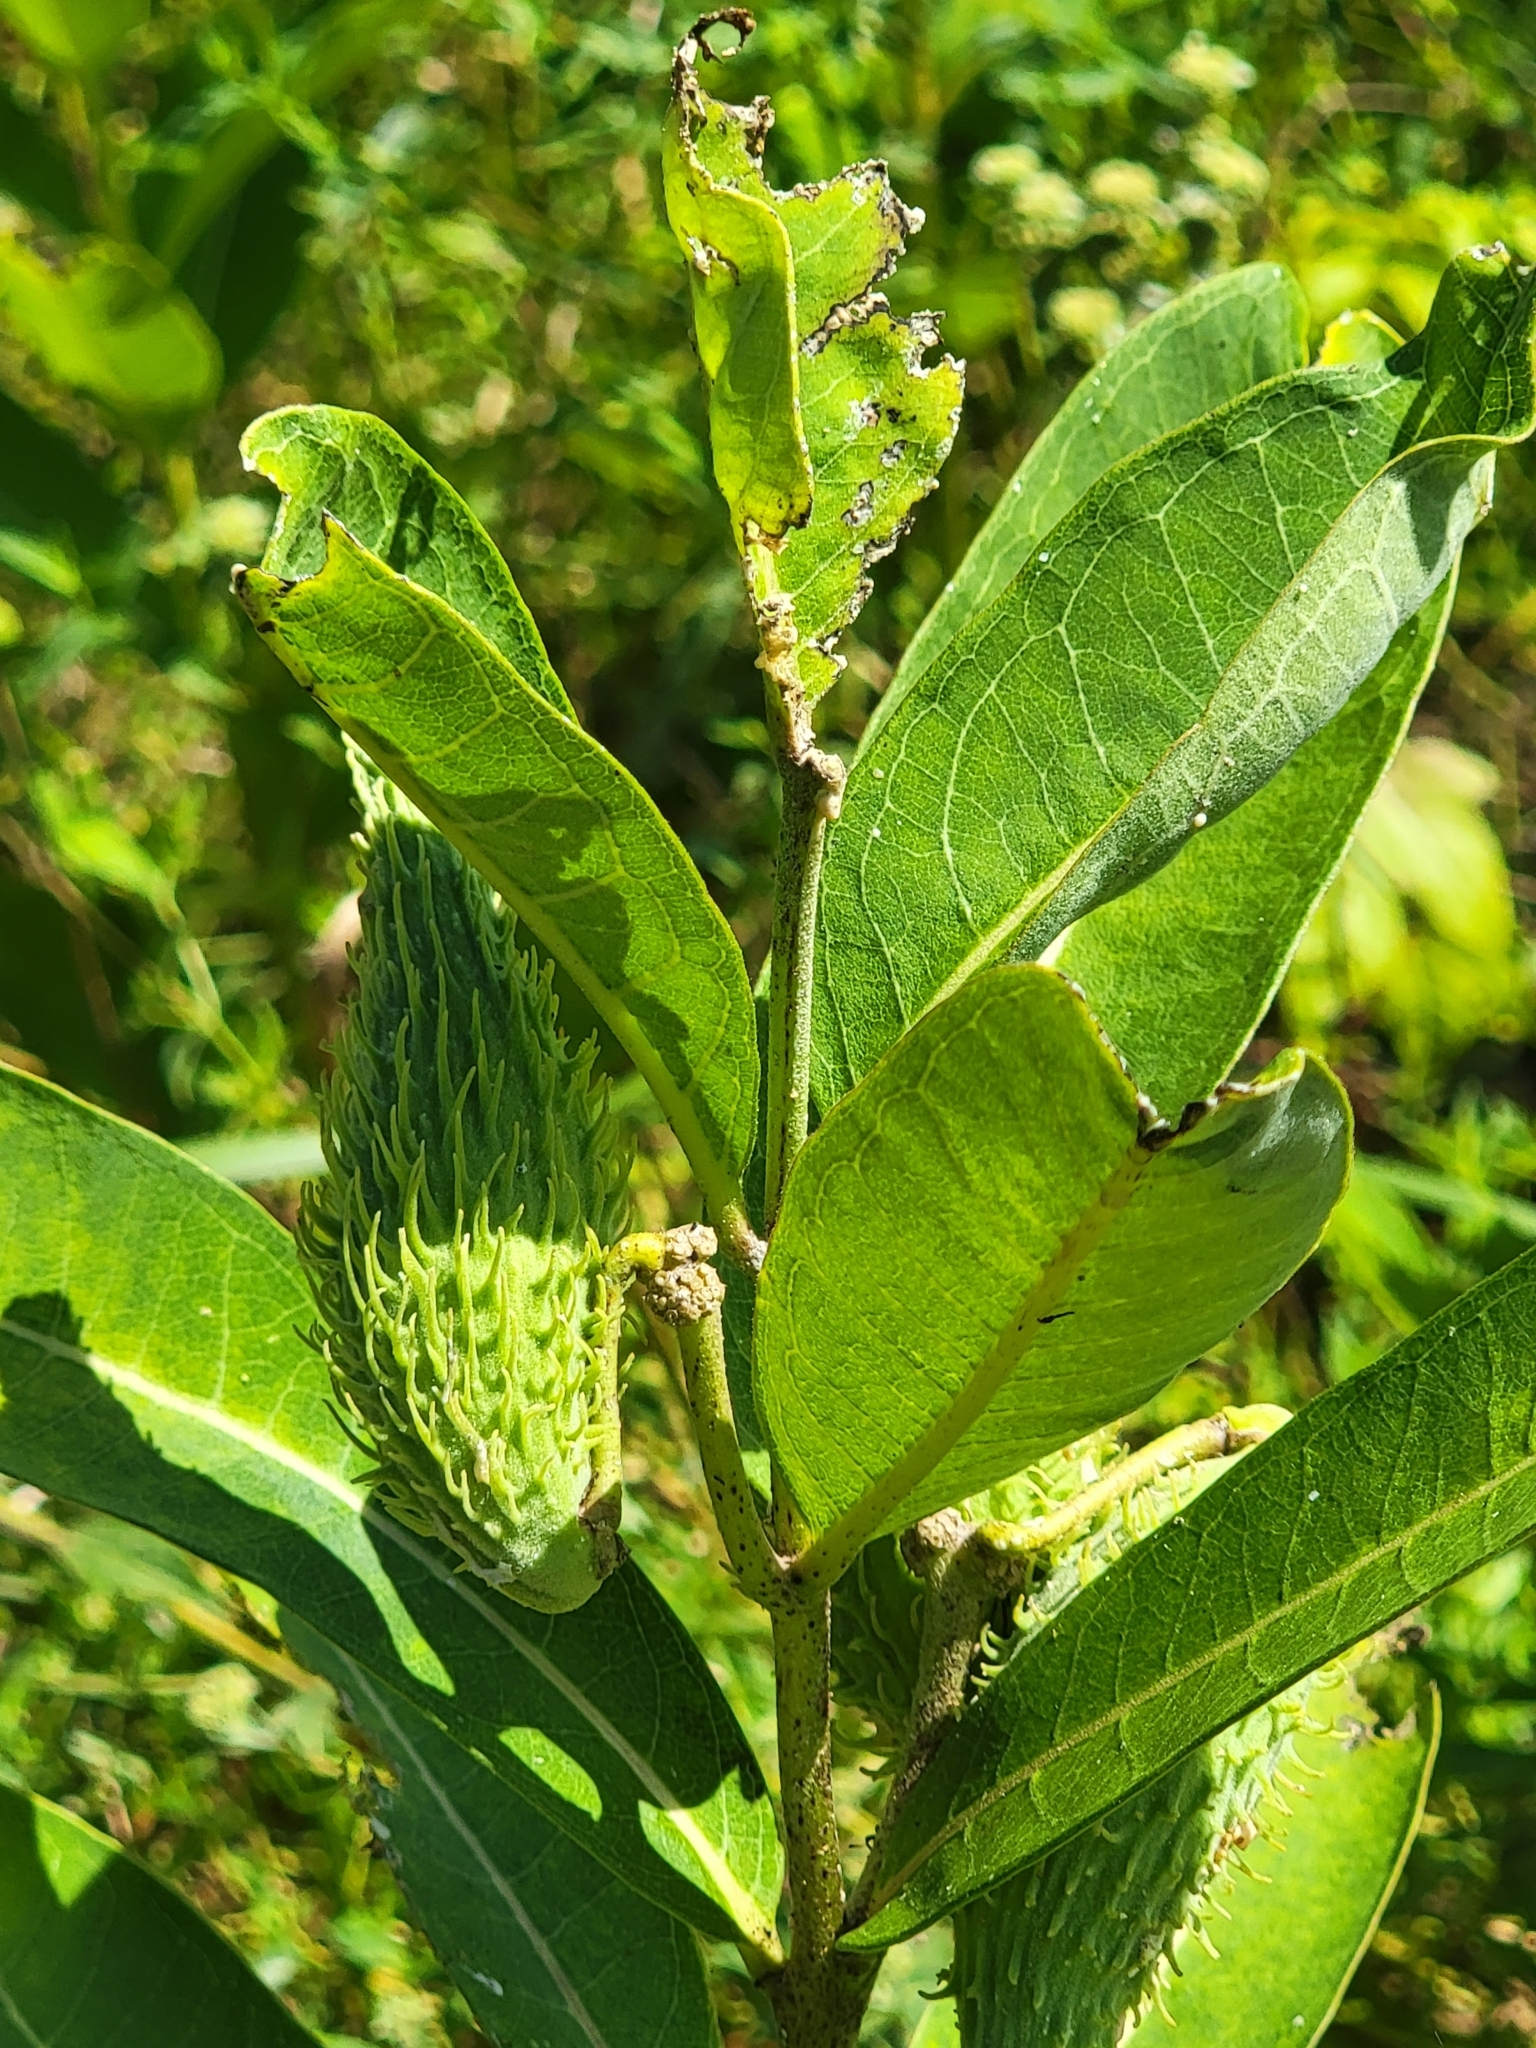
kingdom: Plantae
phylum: Tracheophyta
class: Magnoliopsida
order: Gentianales
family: Apocynaceae
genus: Asclepias
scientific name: Asclepias syriaca
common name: Common milkweed
